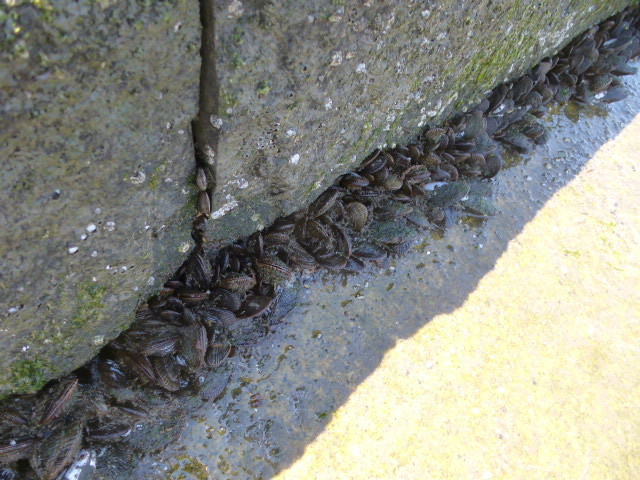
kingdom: Animalia
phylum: Mollusca
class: Bivalvia
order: Mytilida
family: Mytilidae
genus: Geukensia
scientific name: Geukensia demissa
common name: Ribbed mussel
